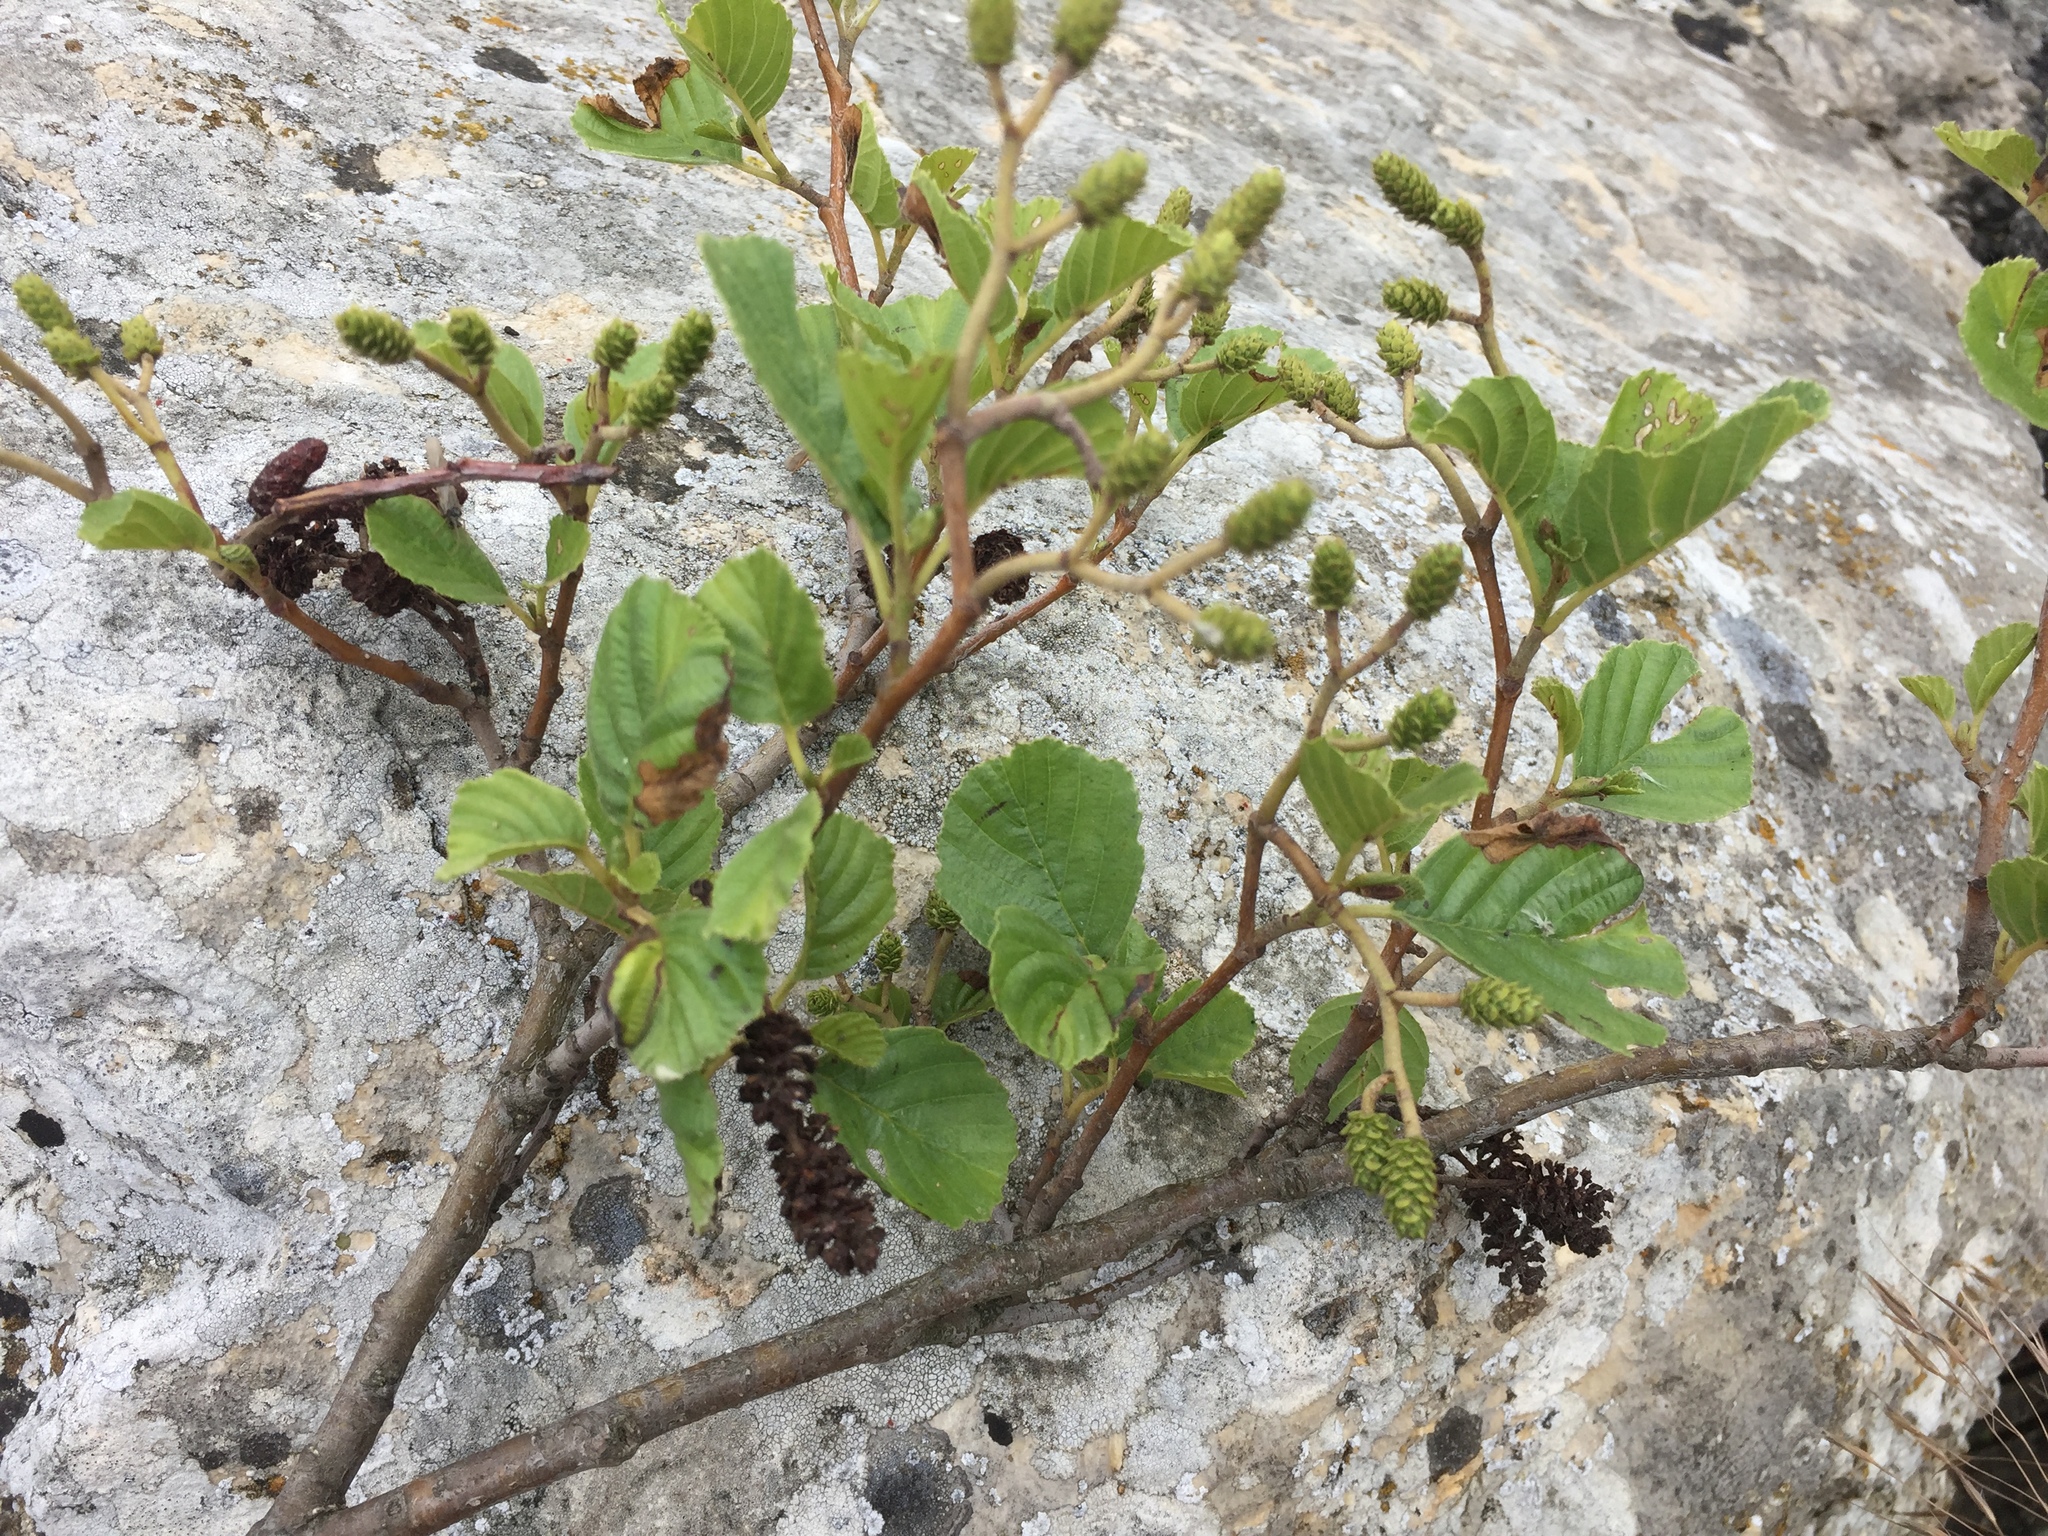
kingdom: Plantae
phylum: Tracheophyta
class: Magnoliopsida
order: Fagales
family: Betulaceae
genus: Alnus
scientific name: Alnus glutinosa
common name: Black alder
